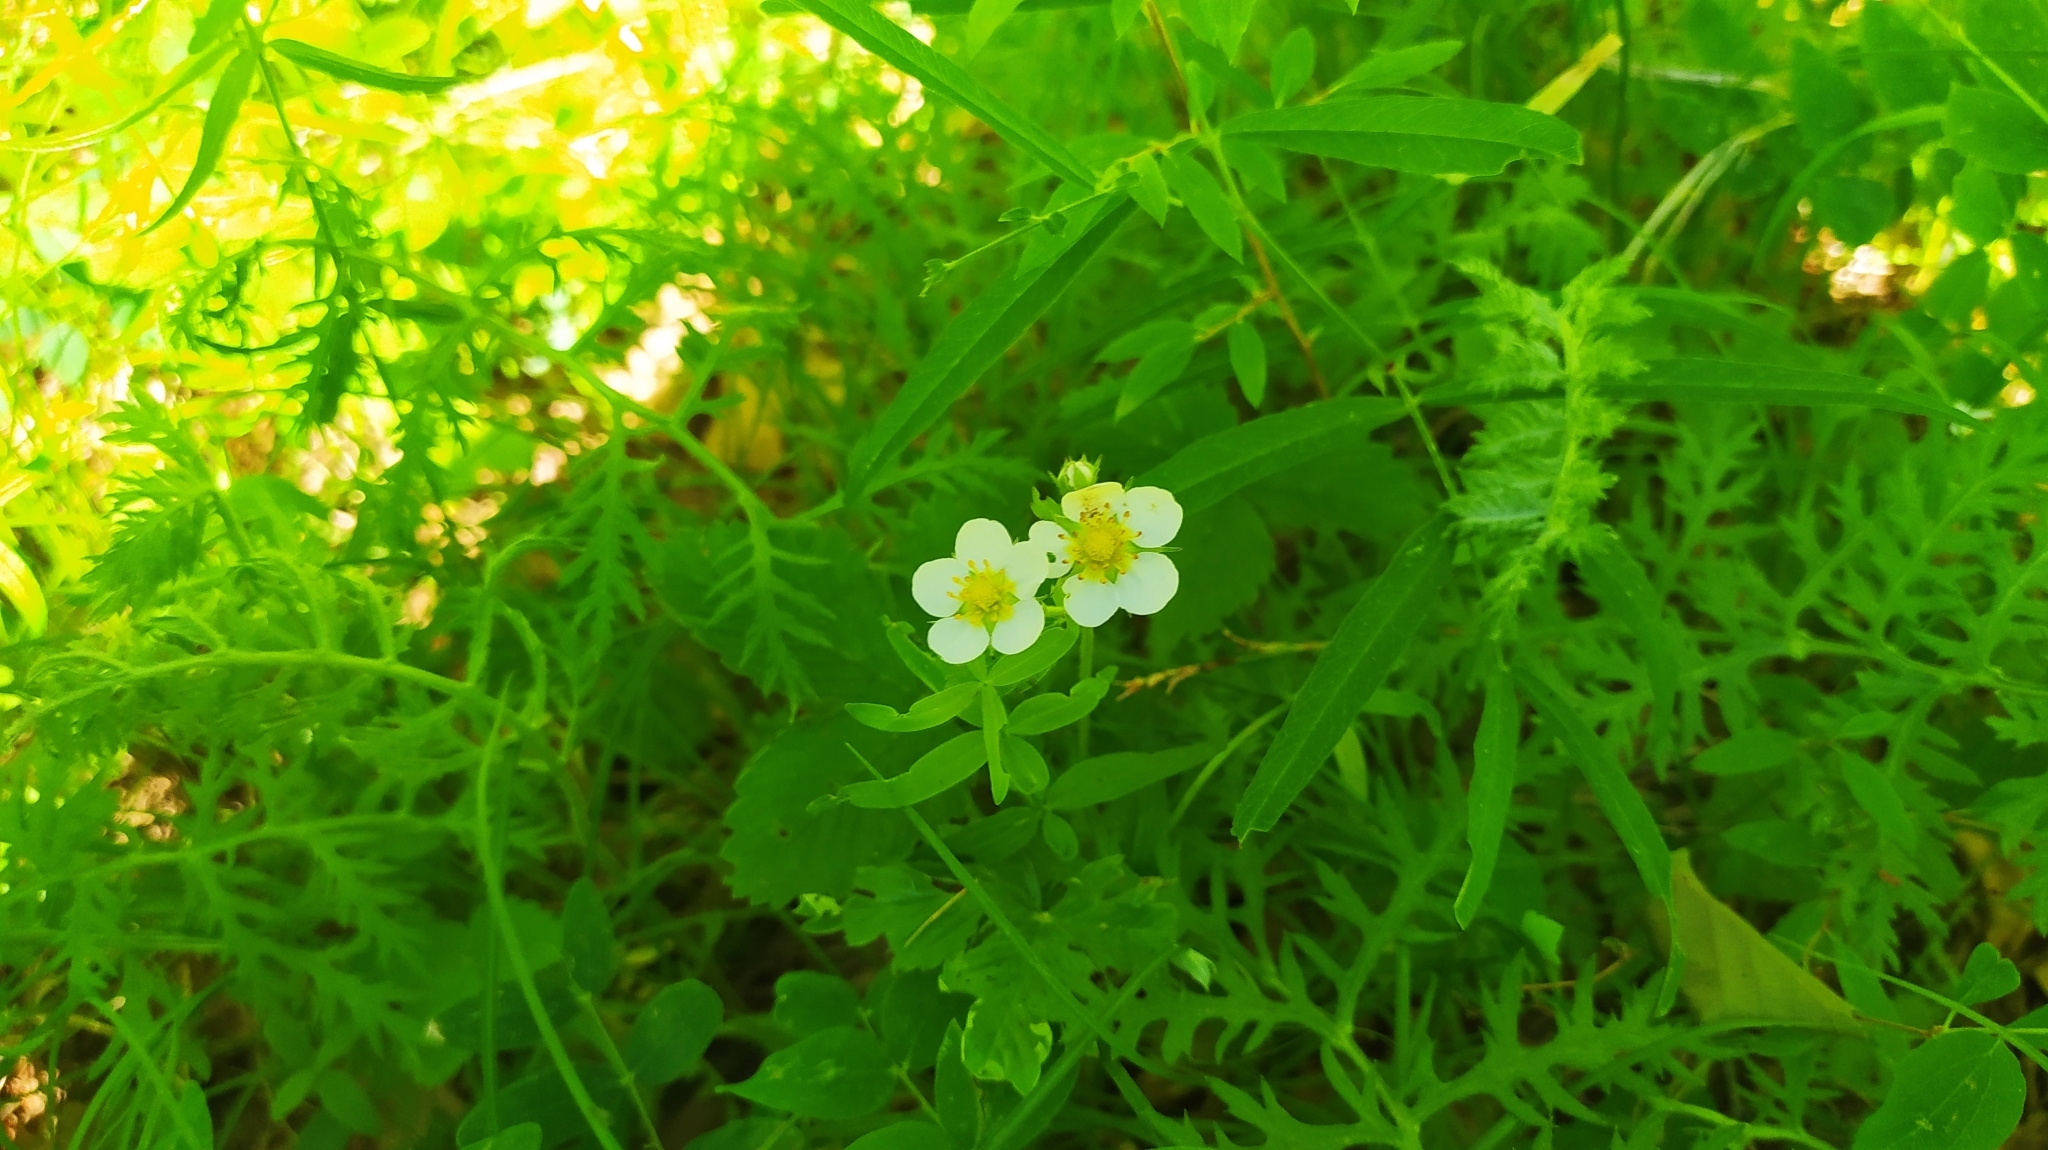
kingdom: Plantae
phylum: Tracheophyta
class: Magnoliopsida
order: Rosales
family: Rosaceae
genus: Fragaria
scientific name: Fragaria orientalis
